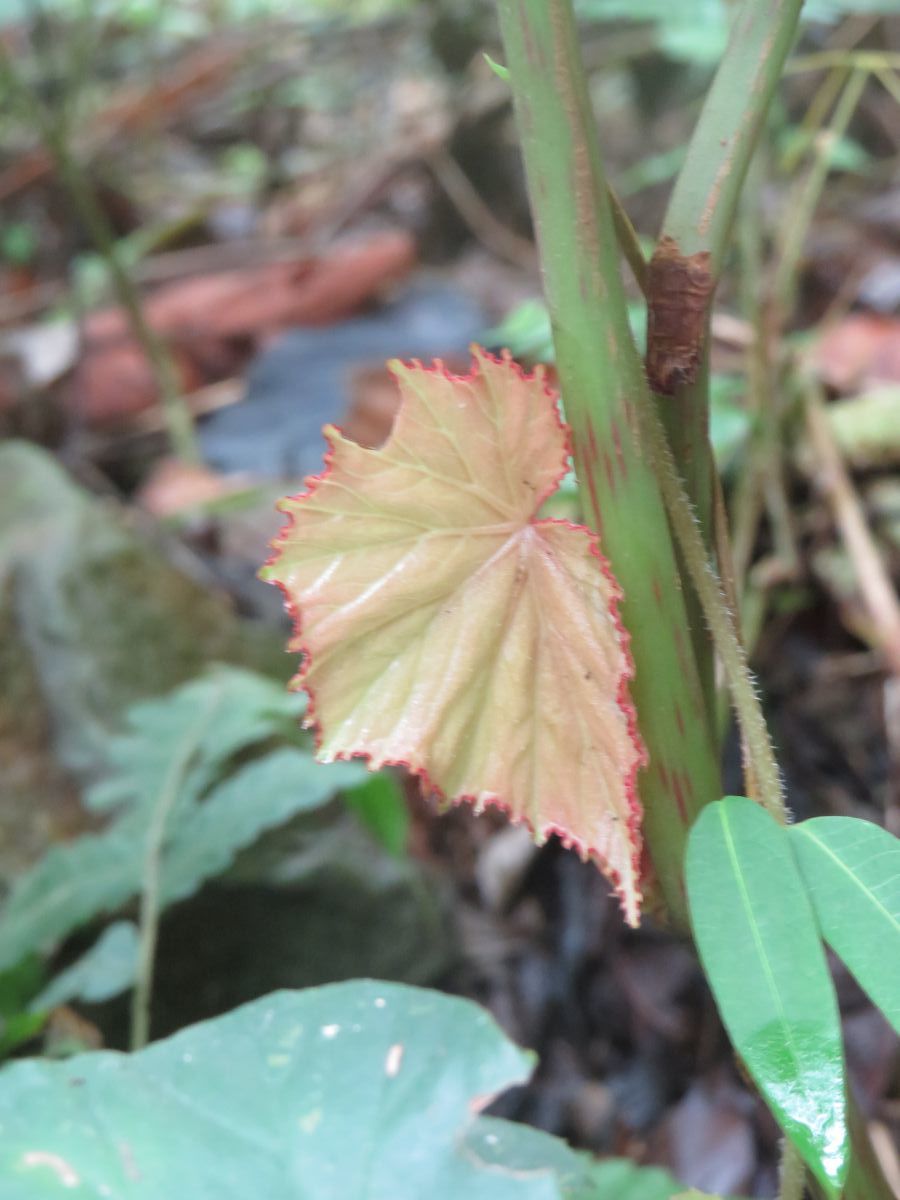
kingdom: Plantae
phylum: Tracheophyta
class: Magnoliopsida
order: Cucurbitales
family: Begoniaceae
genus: Begonia
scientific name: Begonia roxburghii
